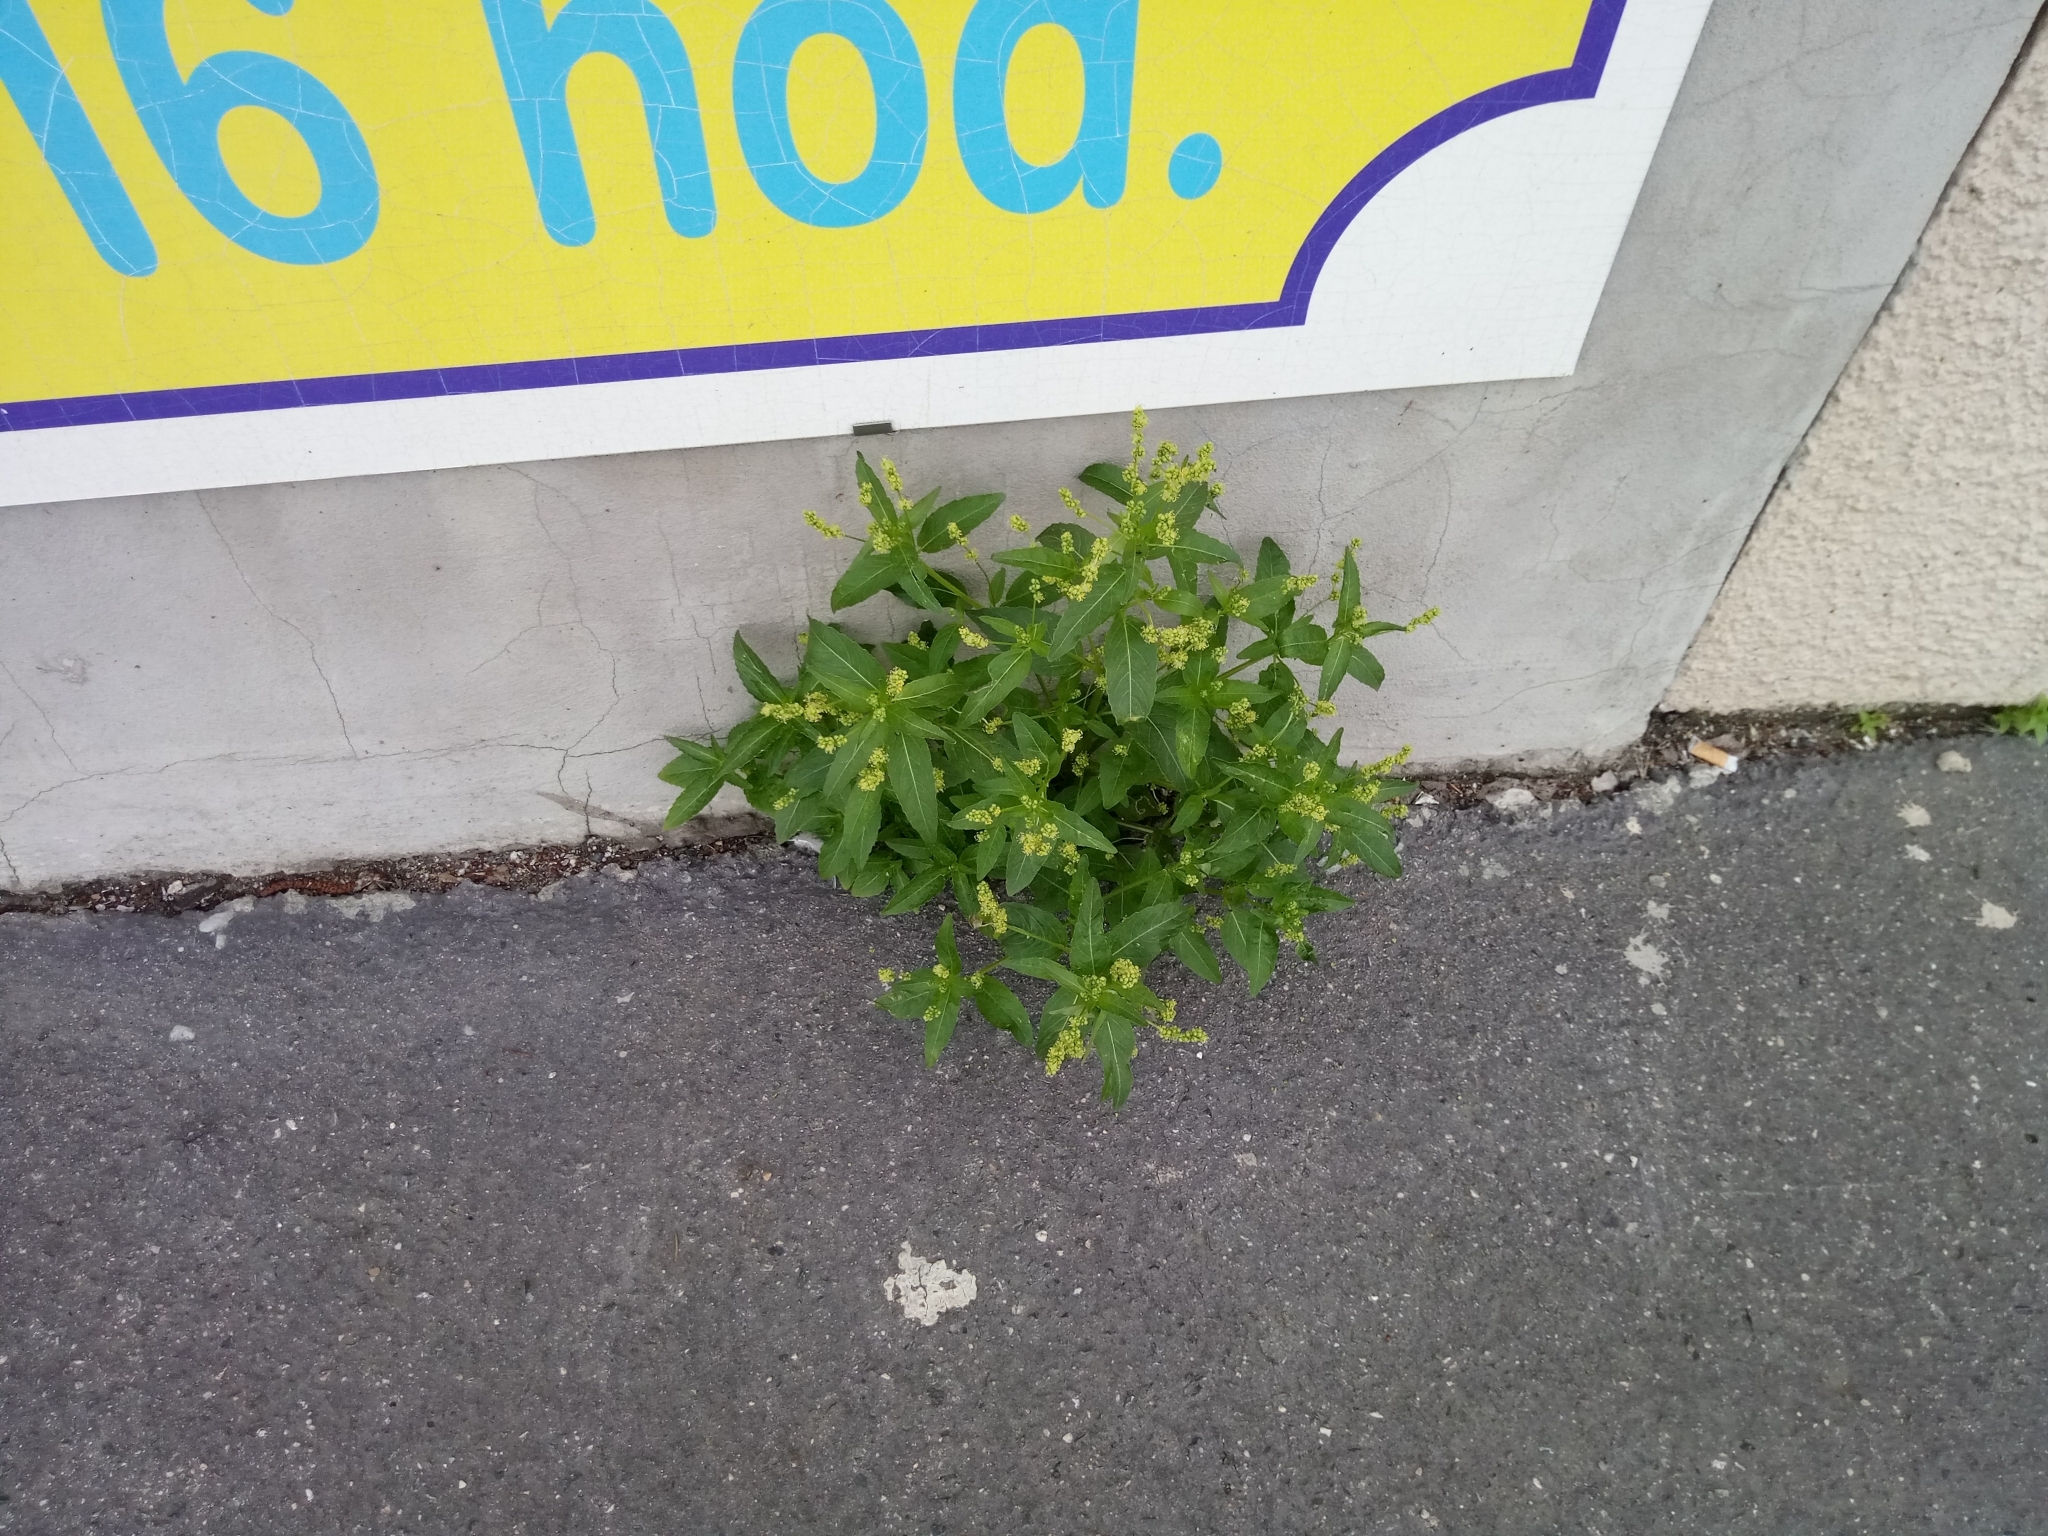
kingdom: Plantae
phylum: Tracheophyta
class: Magnoliopsida
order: Malpighiales
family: Euphorbiaceae
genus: Mercurialis
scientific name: Mercurialis annua
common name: Annual mercury
